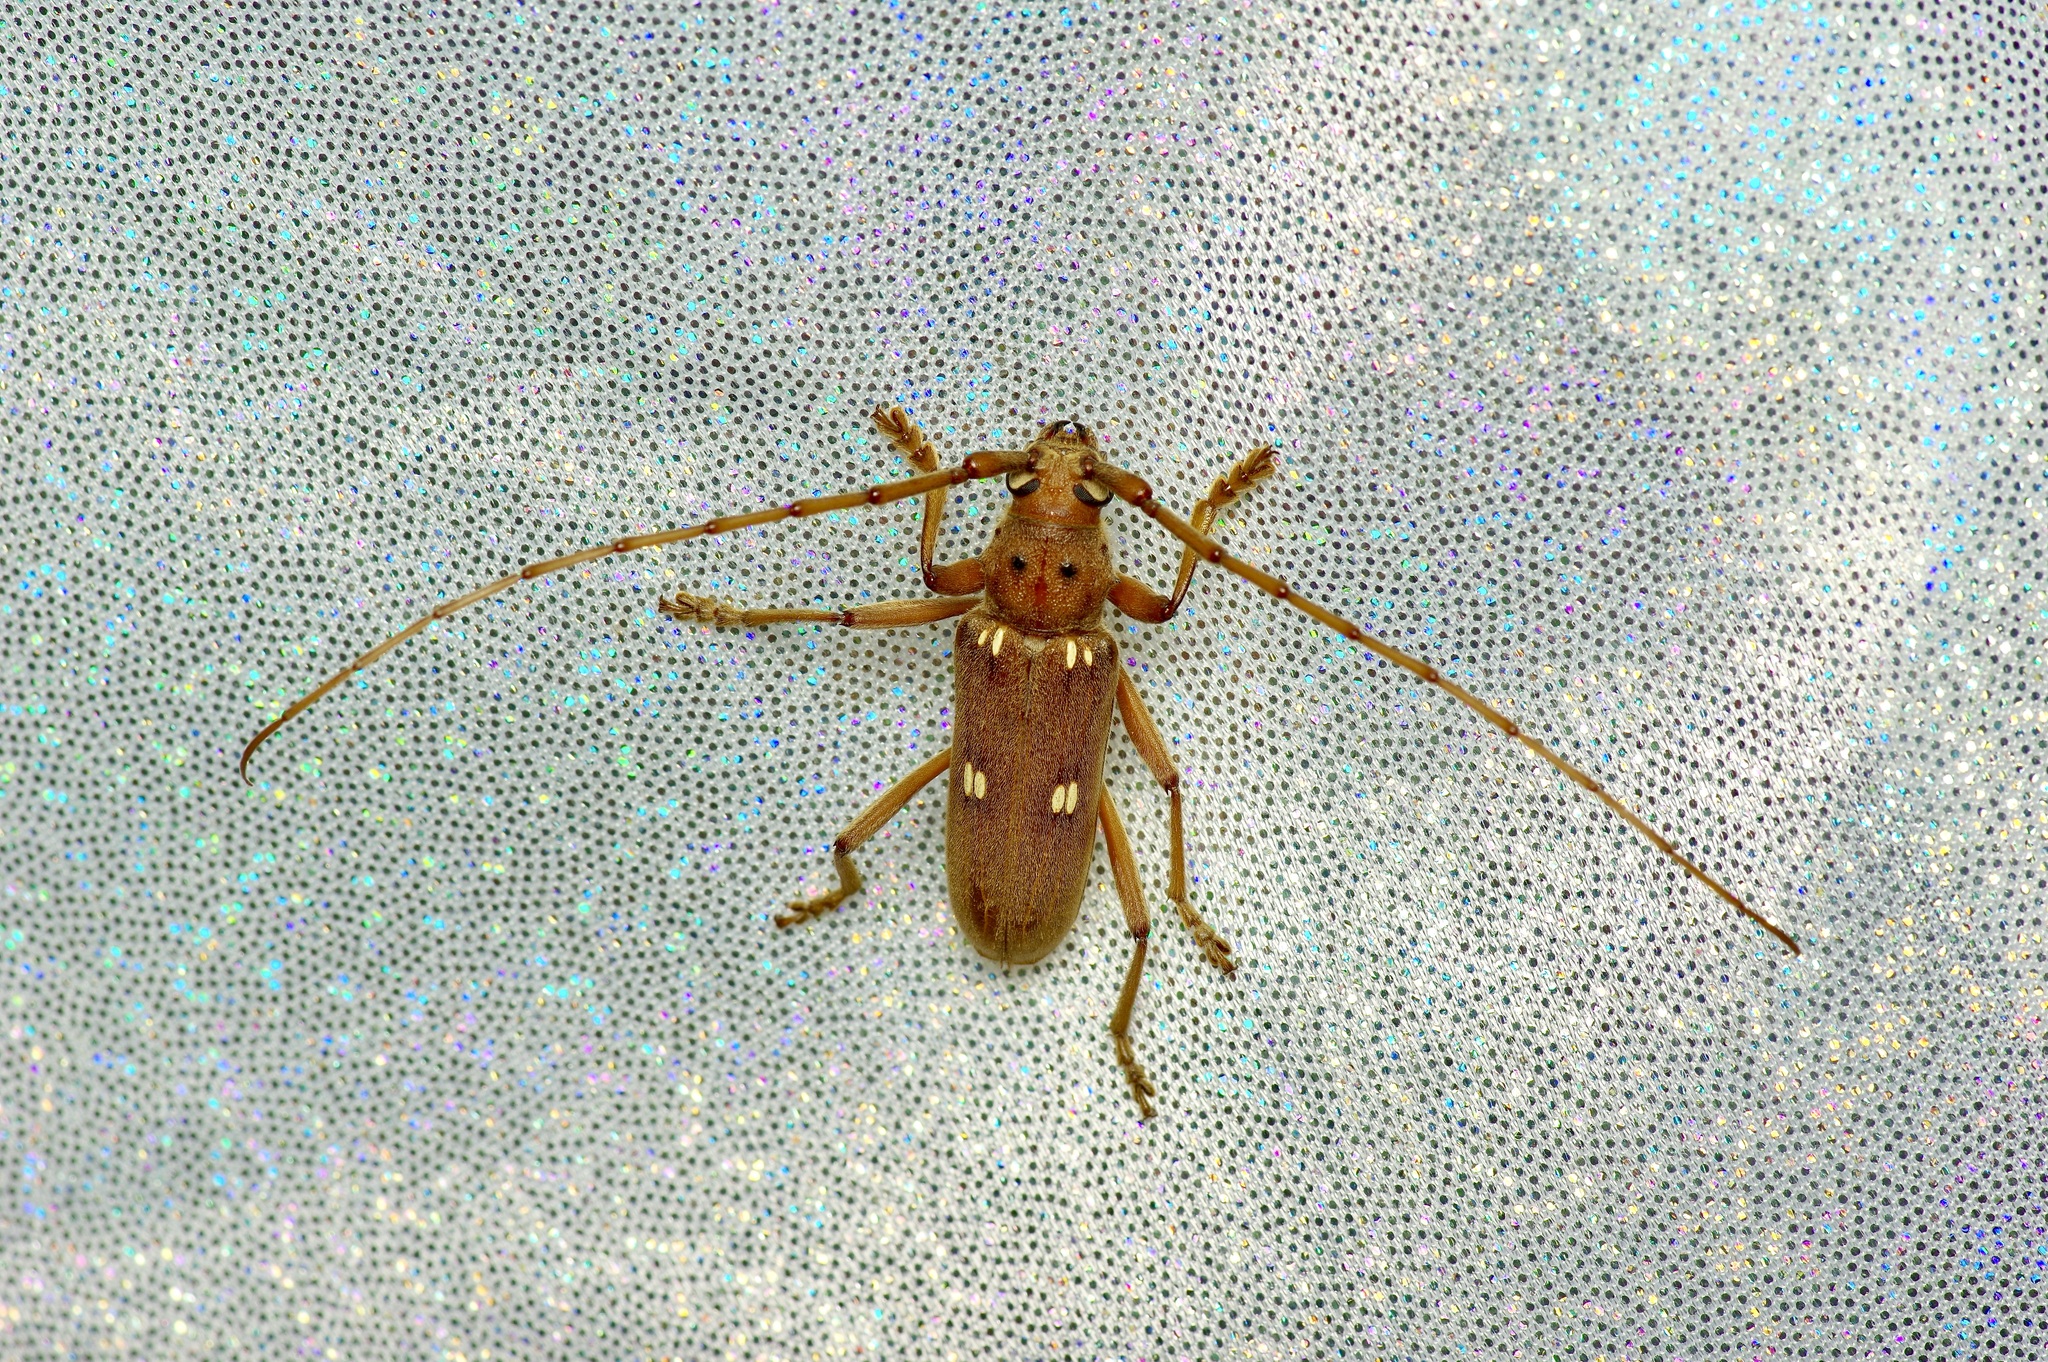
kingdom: Animalia
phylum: Arthropoda
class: Insecta
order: Coleoptera
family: Cerambycidae
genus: Eburia
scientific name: Eburia haldemani
